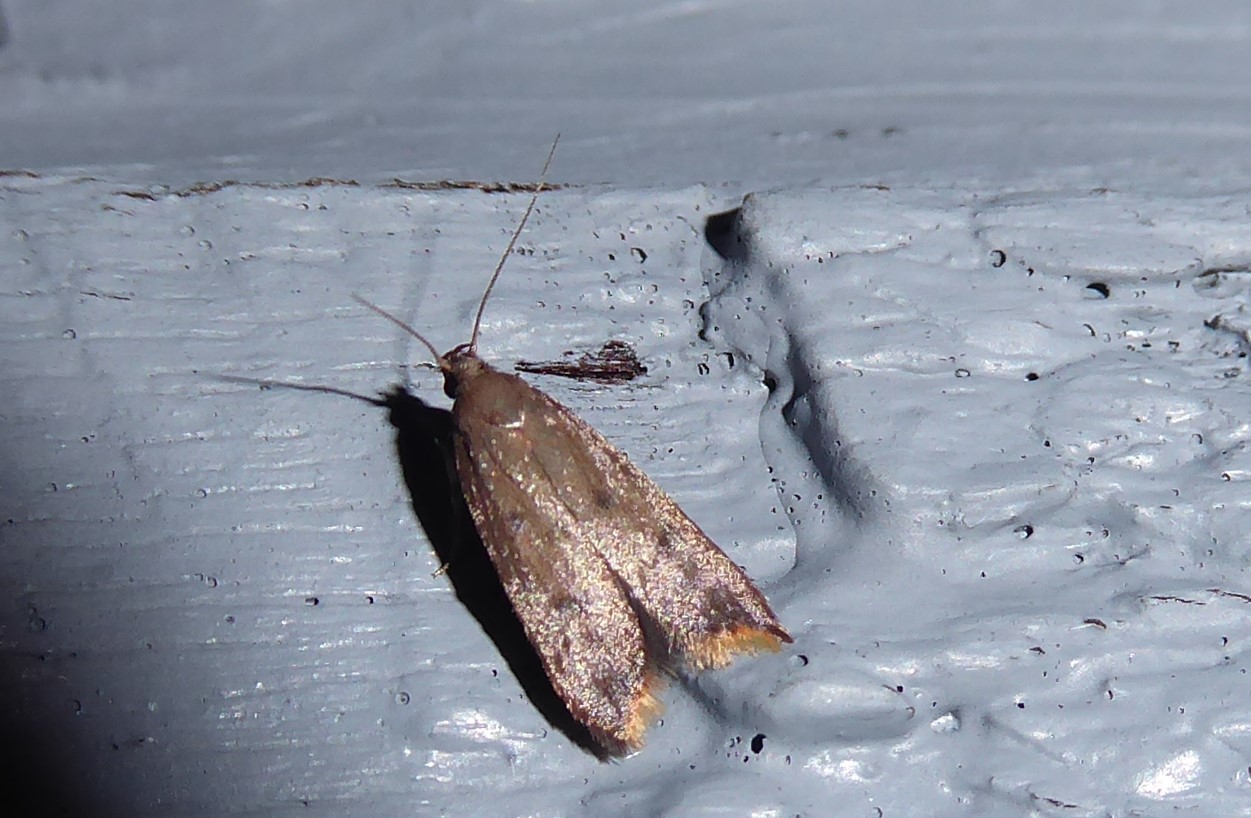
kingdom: Animalia
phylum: Arthropoda
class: Insecta
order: Lepidoptera
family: Oecophoridae
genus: Tachystola
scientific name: Tachystola acroxantha
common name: Ruddy streak
